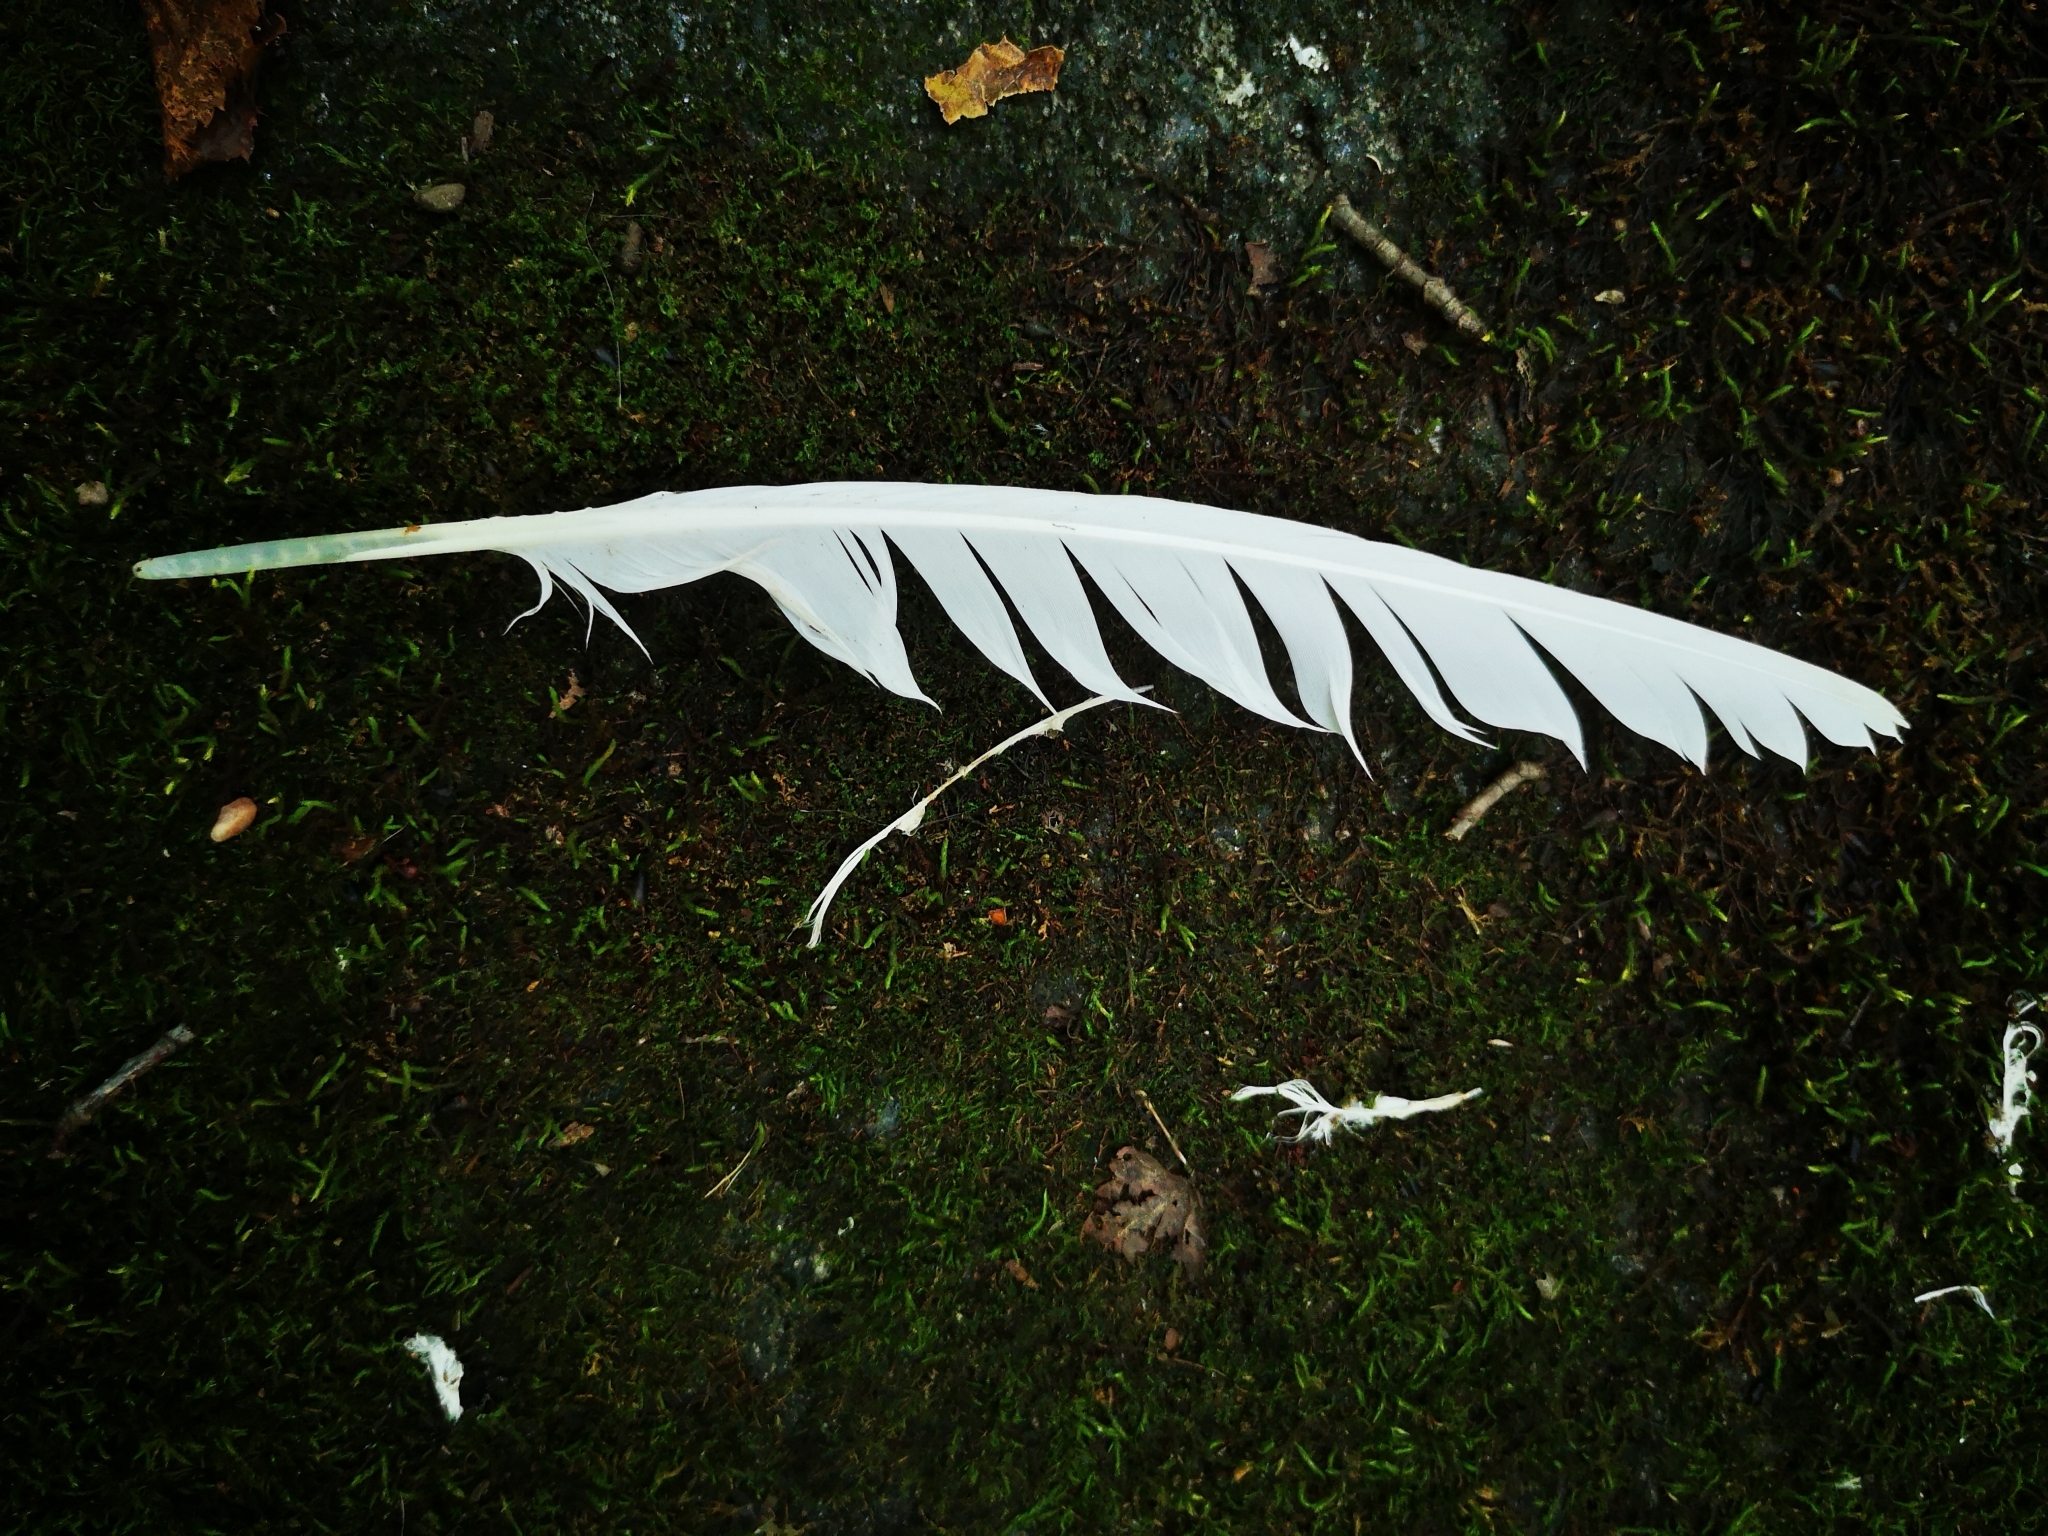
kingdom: Animalia
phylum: Chordata
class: Aves
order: Columbiformes
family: Columbidae
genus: Columba
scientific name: Columba livia
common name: Rock pigeon
